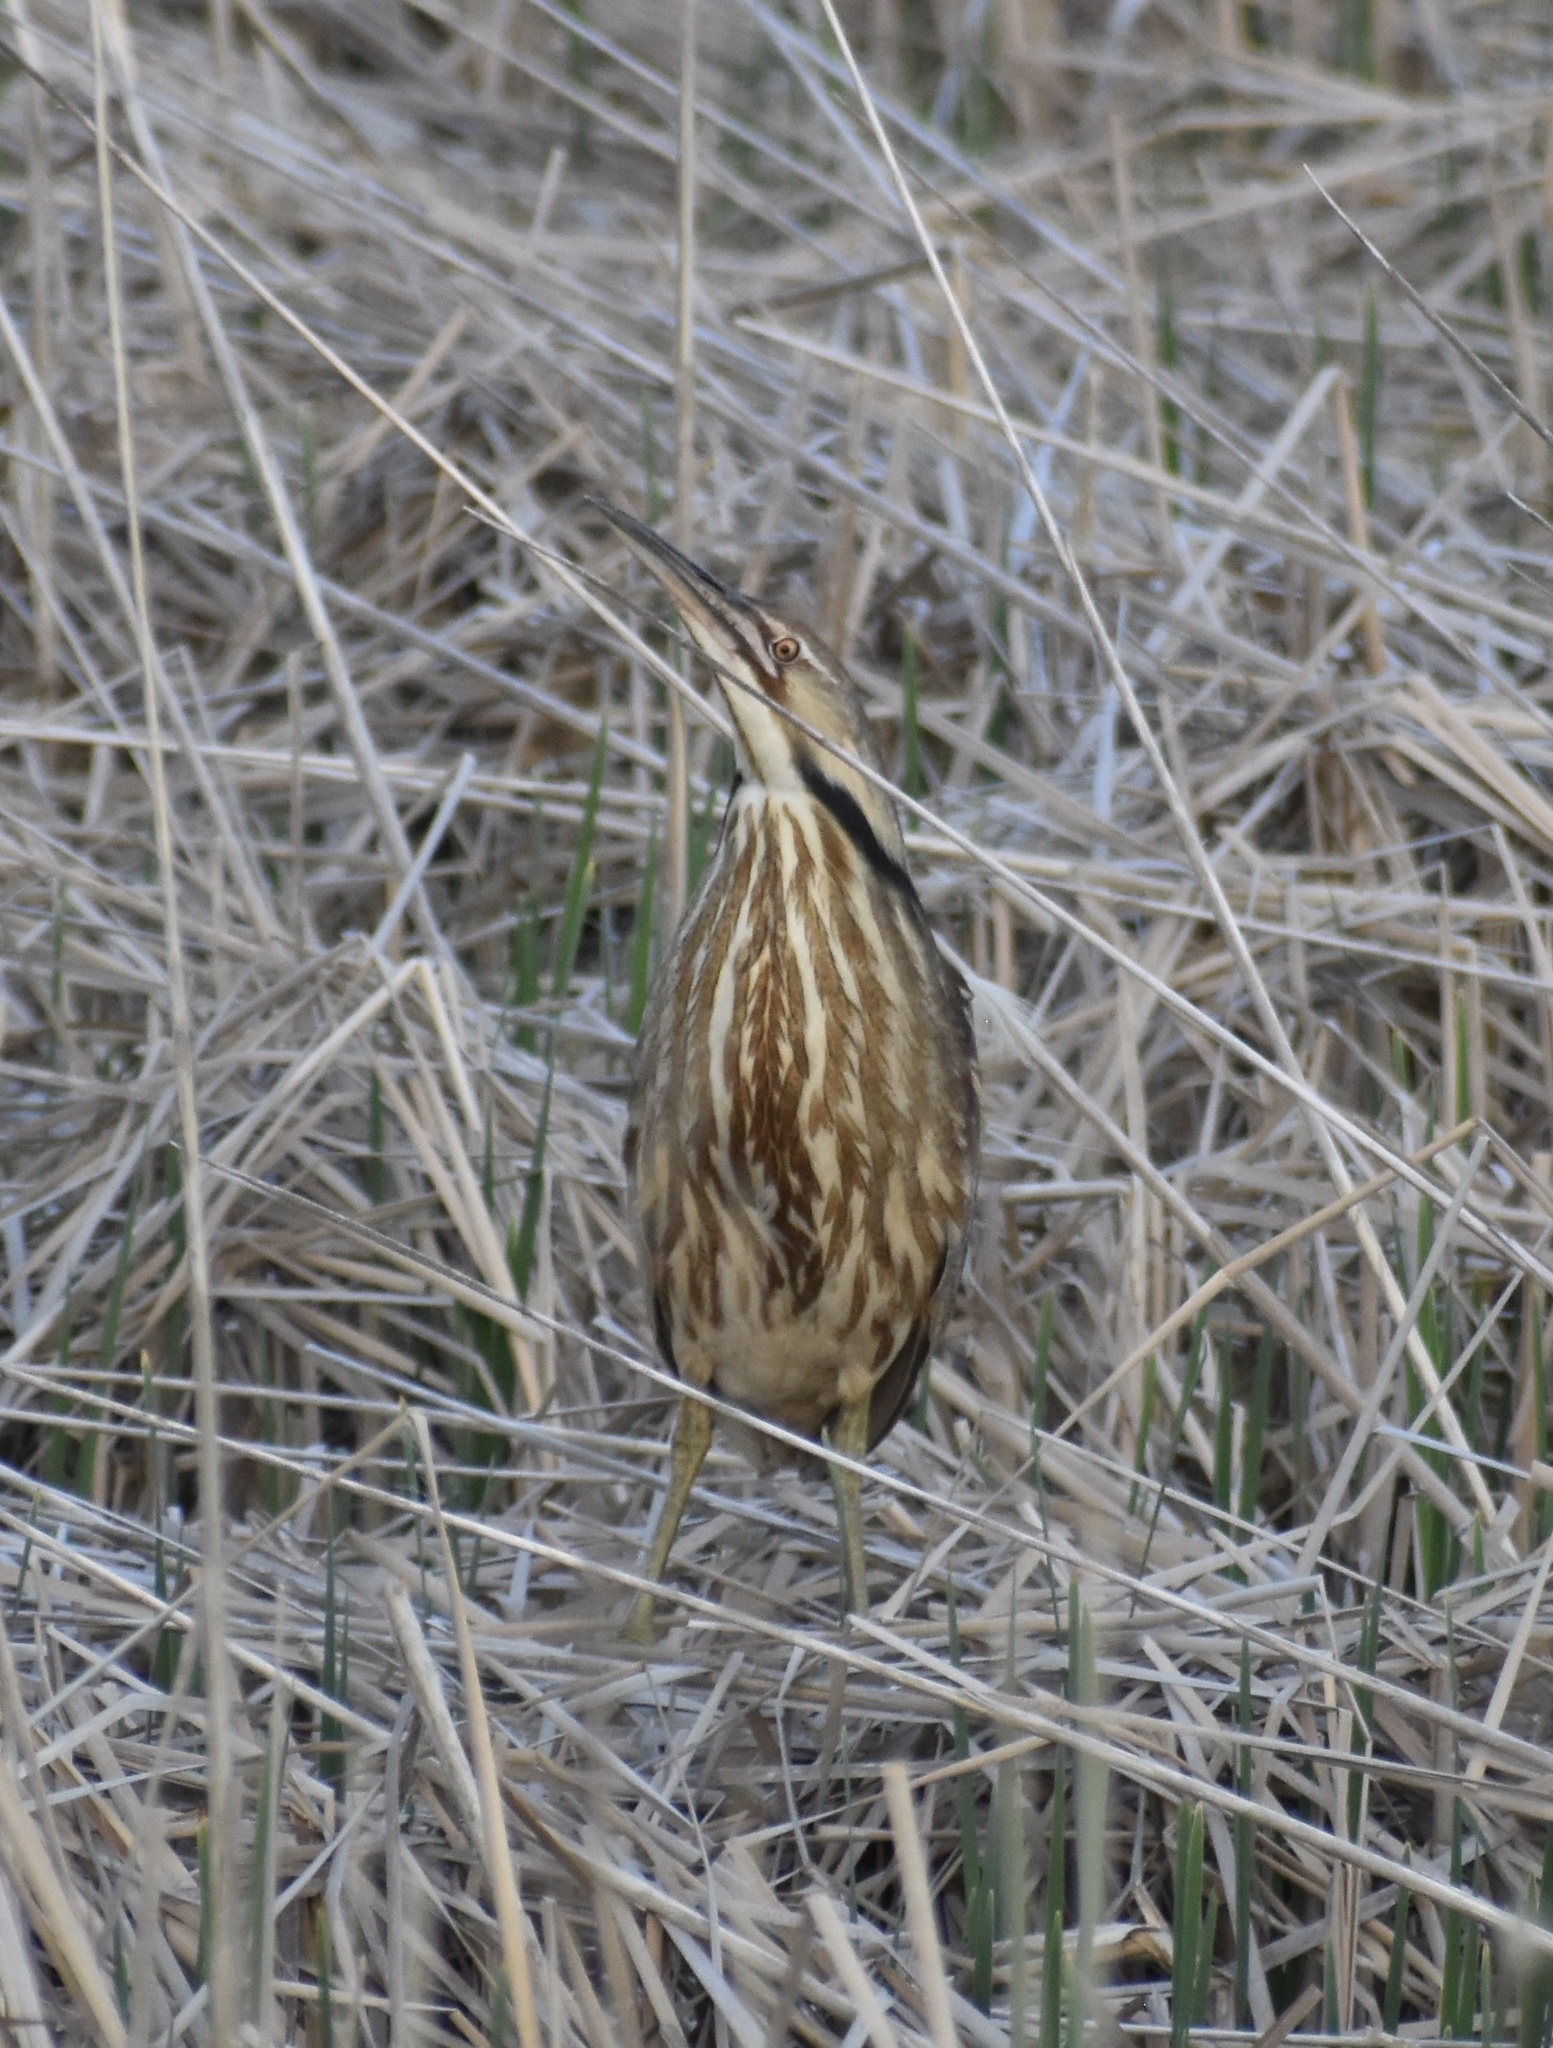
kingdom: Animalia
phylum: Chordata
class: Aves
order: Pelecaniformes
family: Ardeidae
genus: Botaurus
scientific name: Botaurus lentiginosus
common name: American bittern
